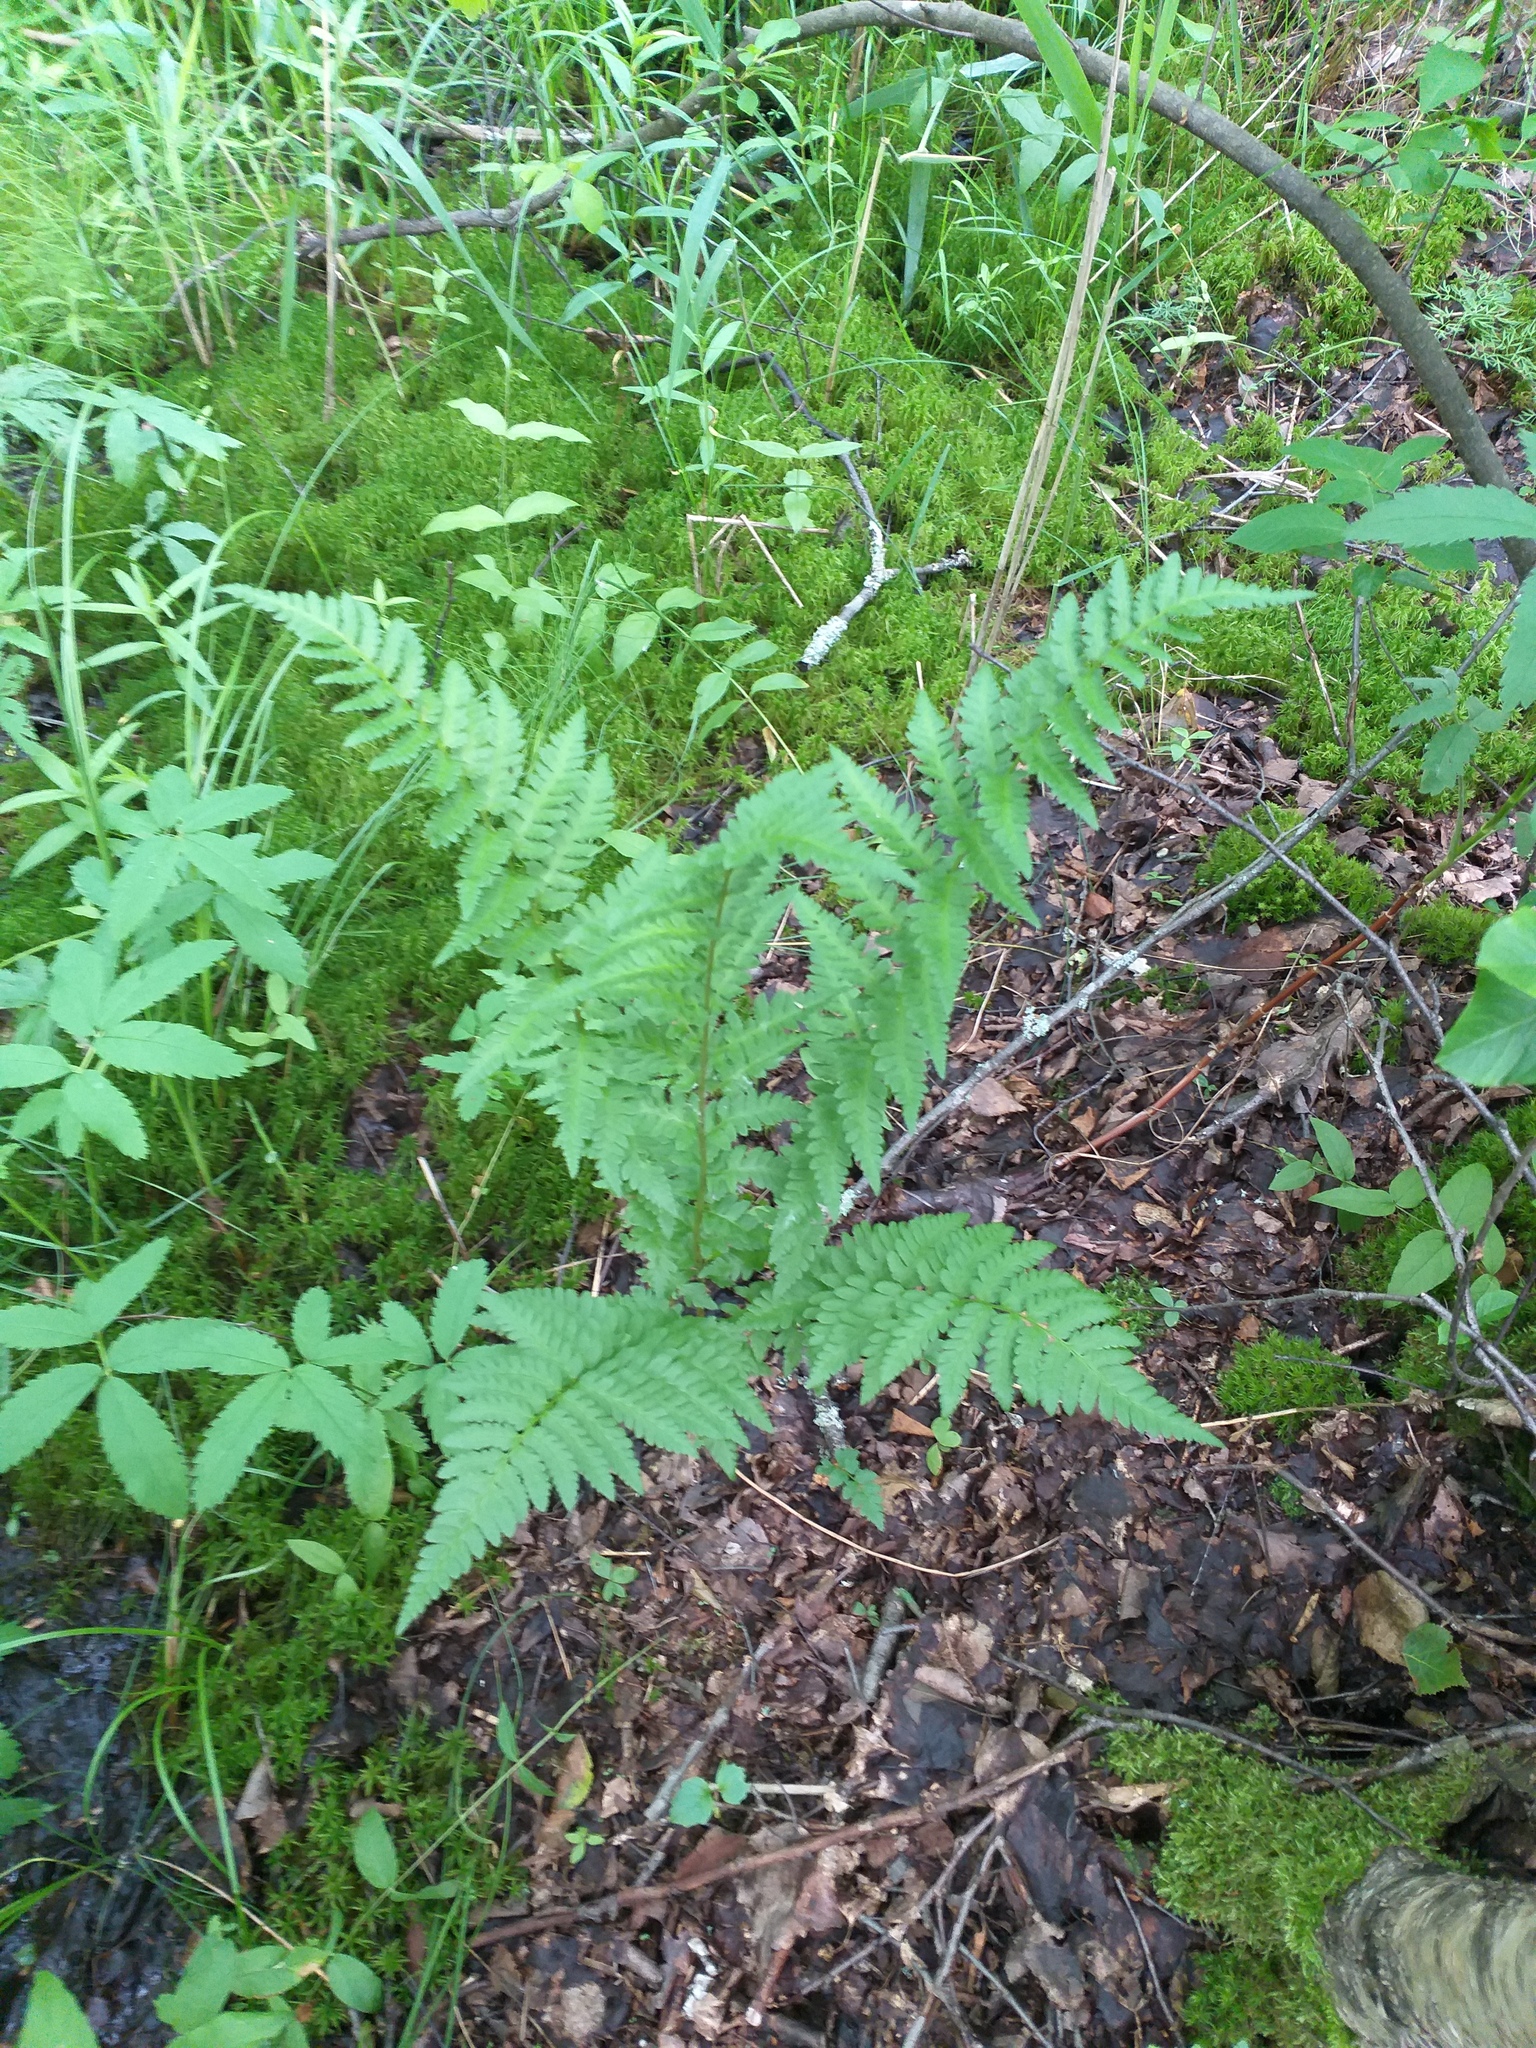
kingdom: Plantae
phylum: Tracheophyta
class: Polypodiopsida
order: Polypodiales
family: Dryopteridaceae
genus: Dryopteris
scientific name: Dryopteris cristata
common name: Crested wood fern
